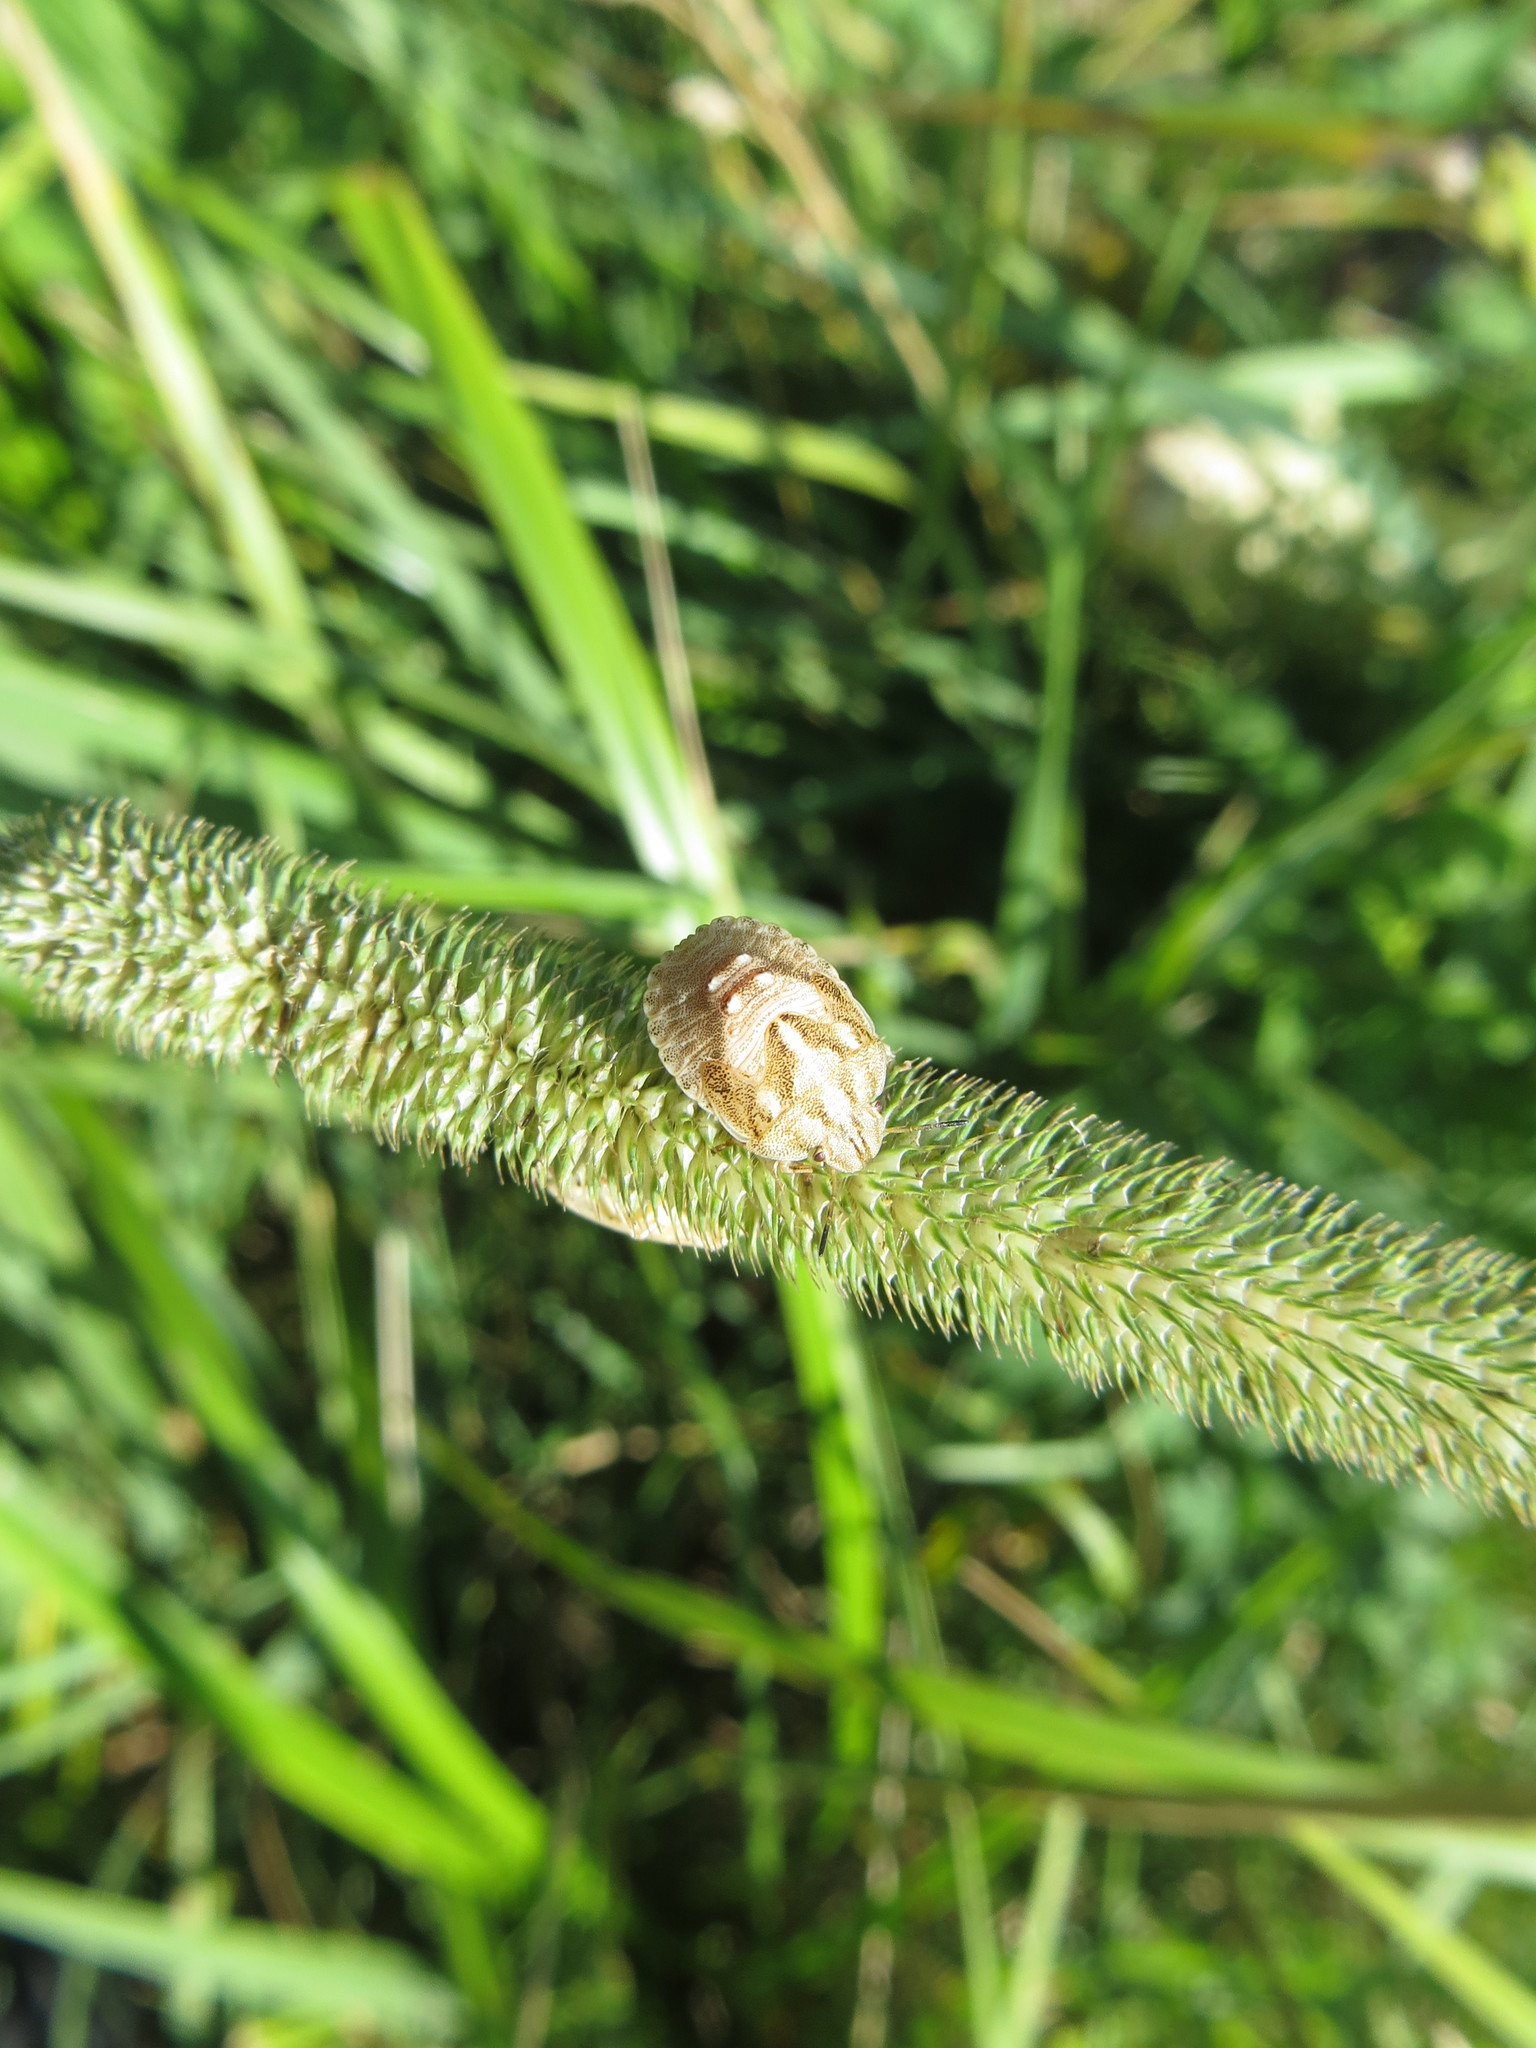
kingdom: Animalia
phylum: Arthropoda
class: Insecta
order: Hemiptera
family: Scutelleridae
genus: Eurygaster
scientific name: Eurygaster testudinaria
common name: Tortoise bug
